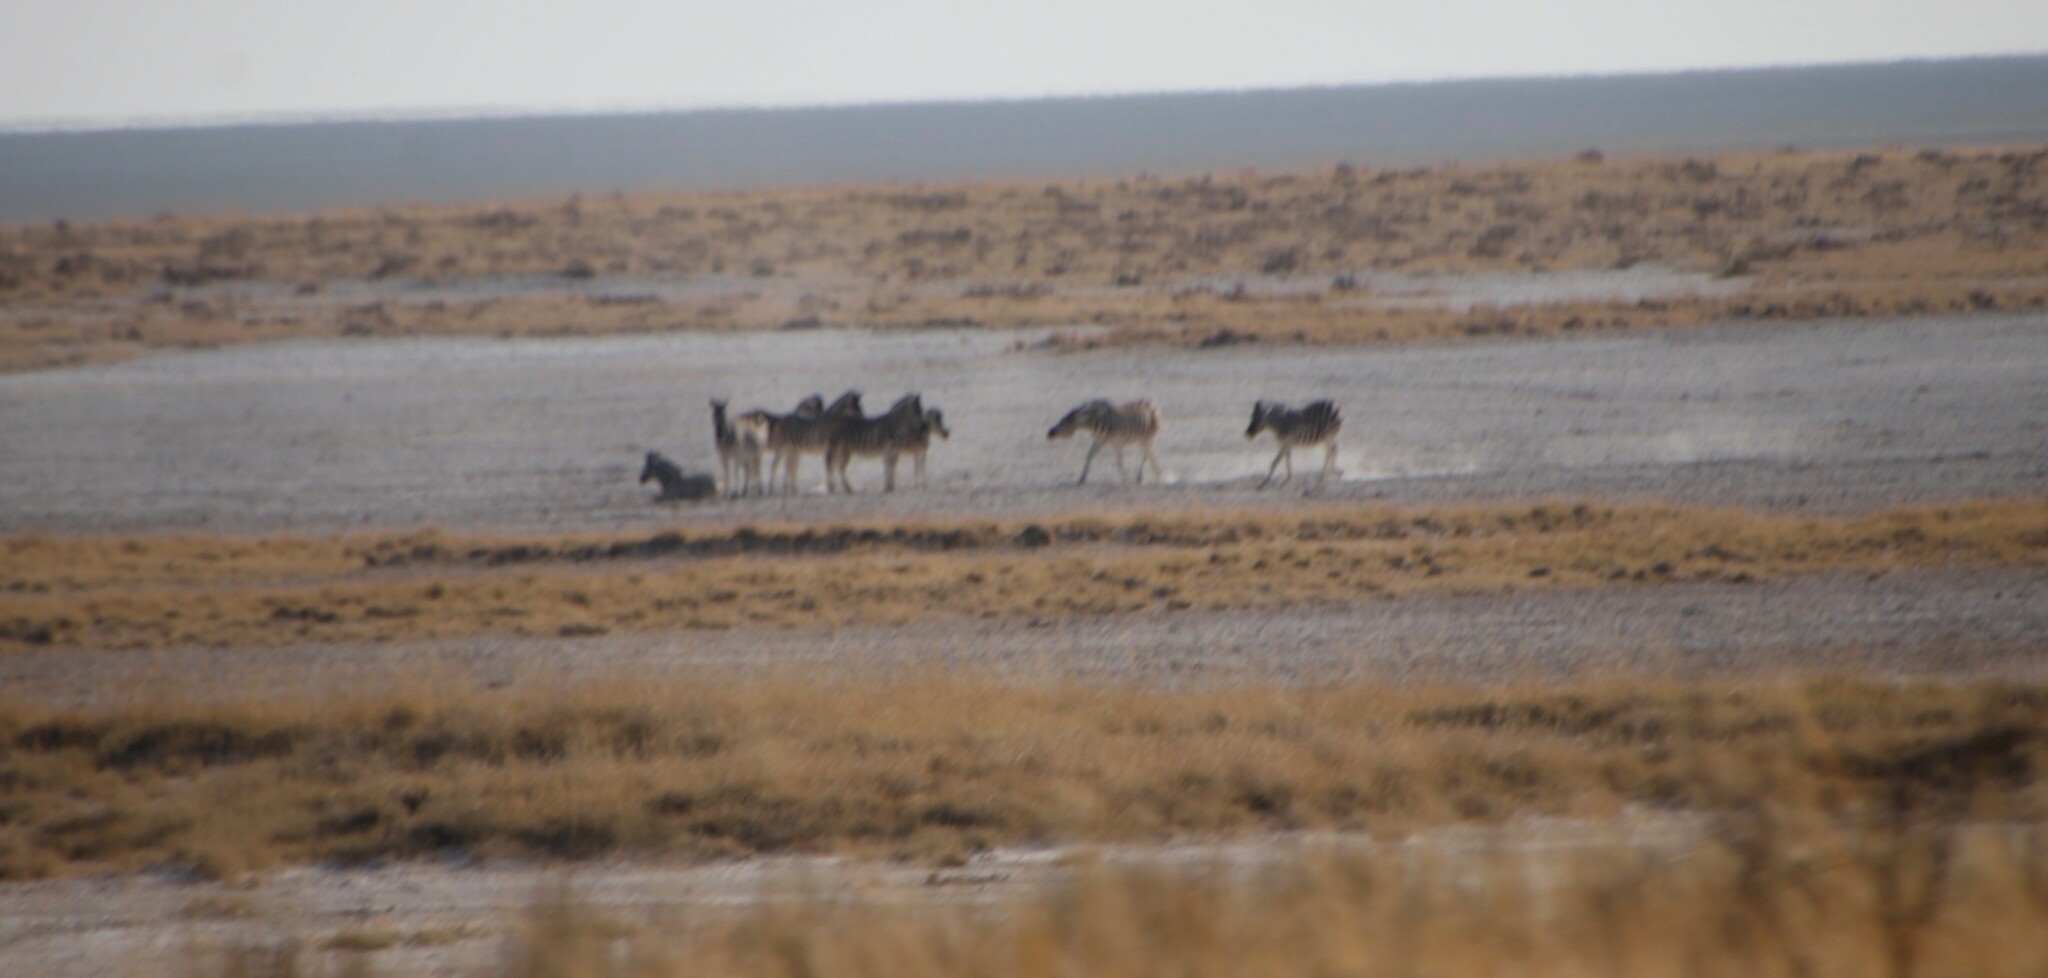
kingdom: Animalia
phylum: Chordata
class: Mammalia
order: Perissodactyla
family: Equidae
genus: Equus
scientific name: Equus quagga
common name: Plains zebra
